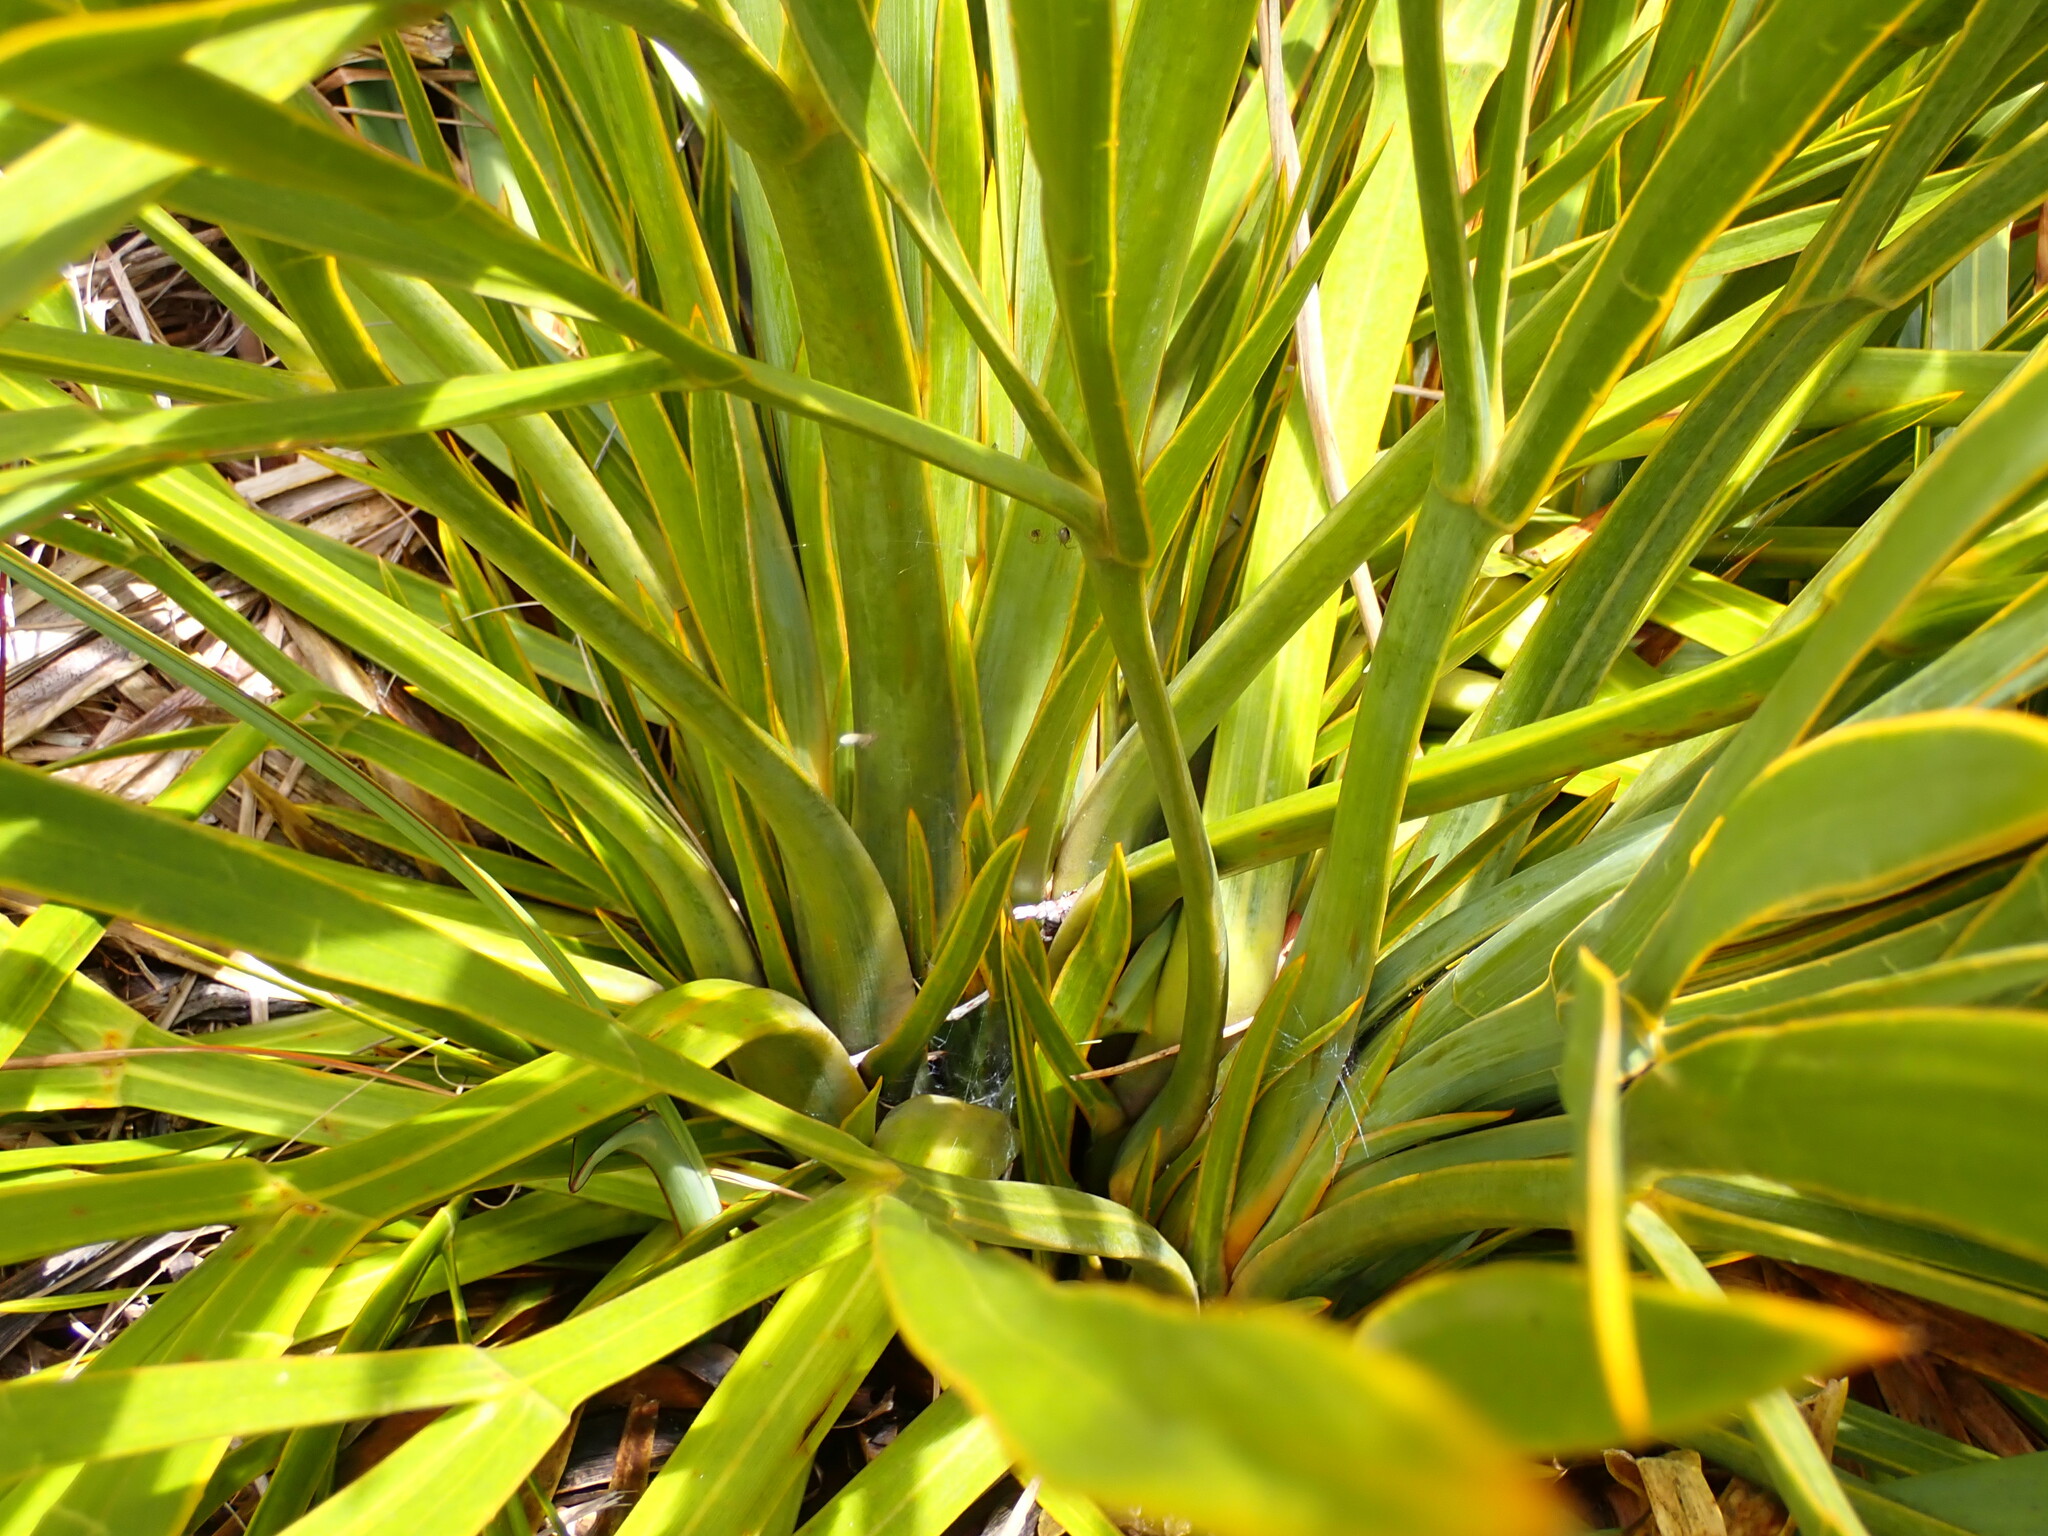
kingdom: Plantae
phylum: Tracheophyta
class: Magnoliopsida
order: Apiales
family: Apiaceae
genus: Aciphylla
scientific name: Aciphylla horrida
